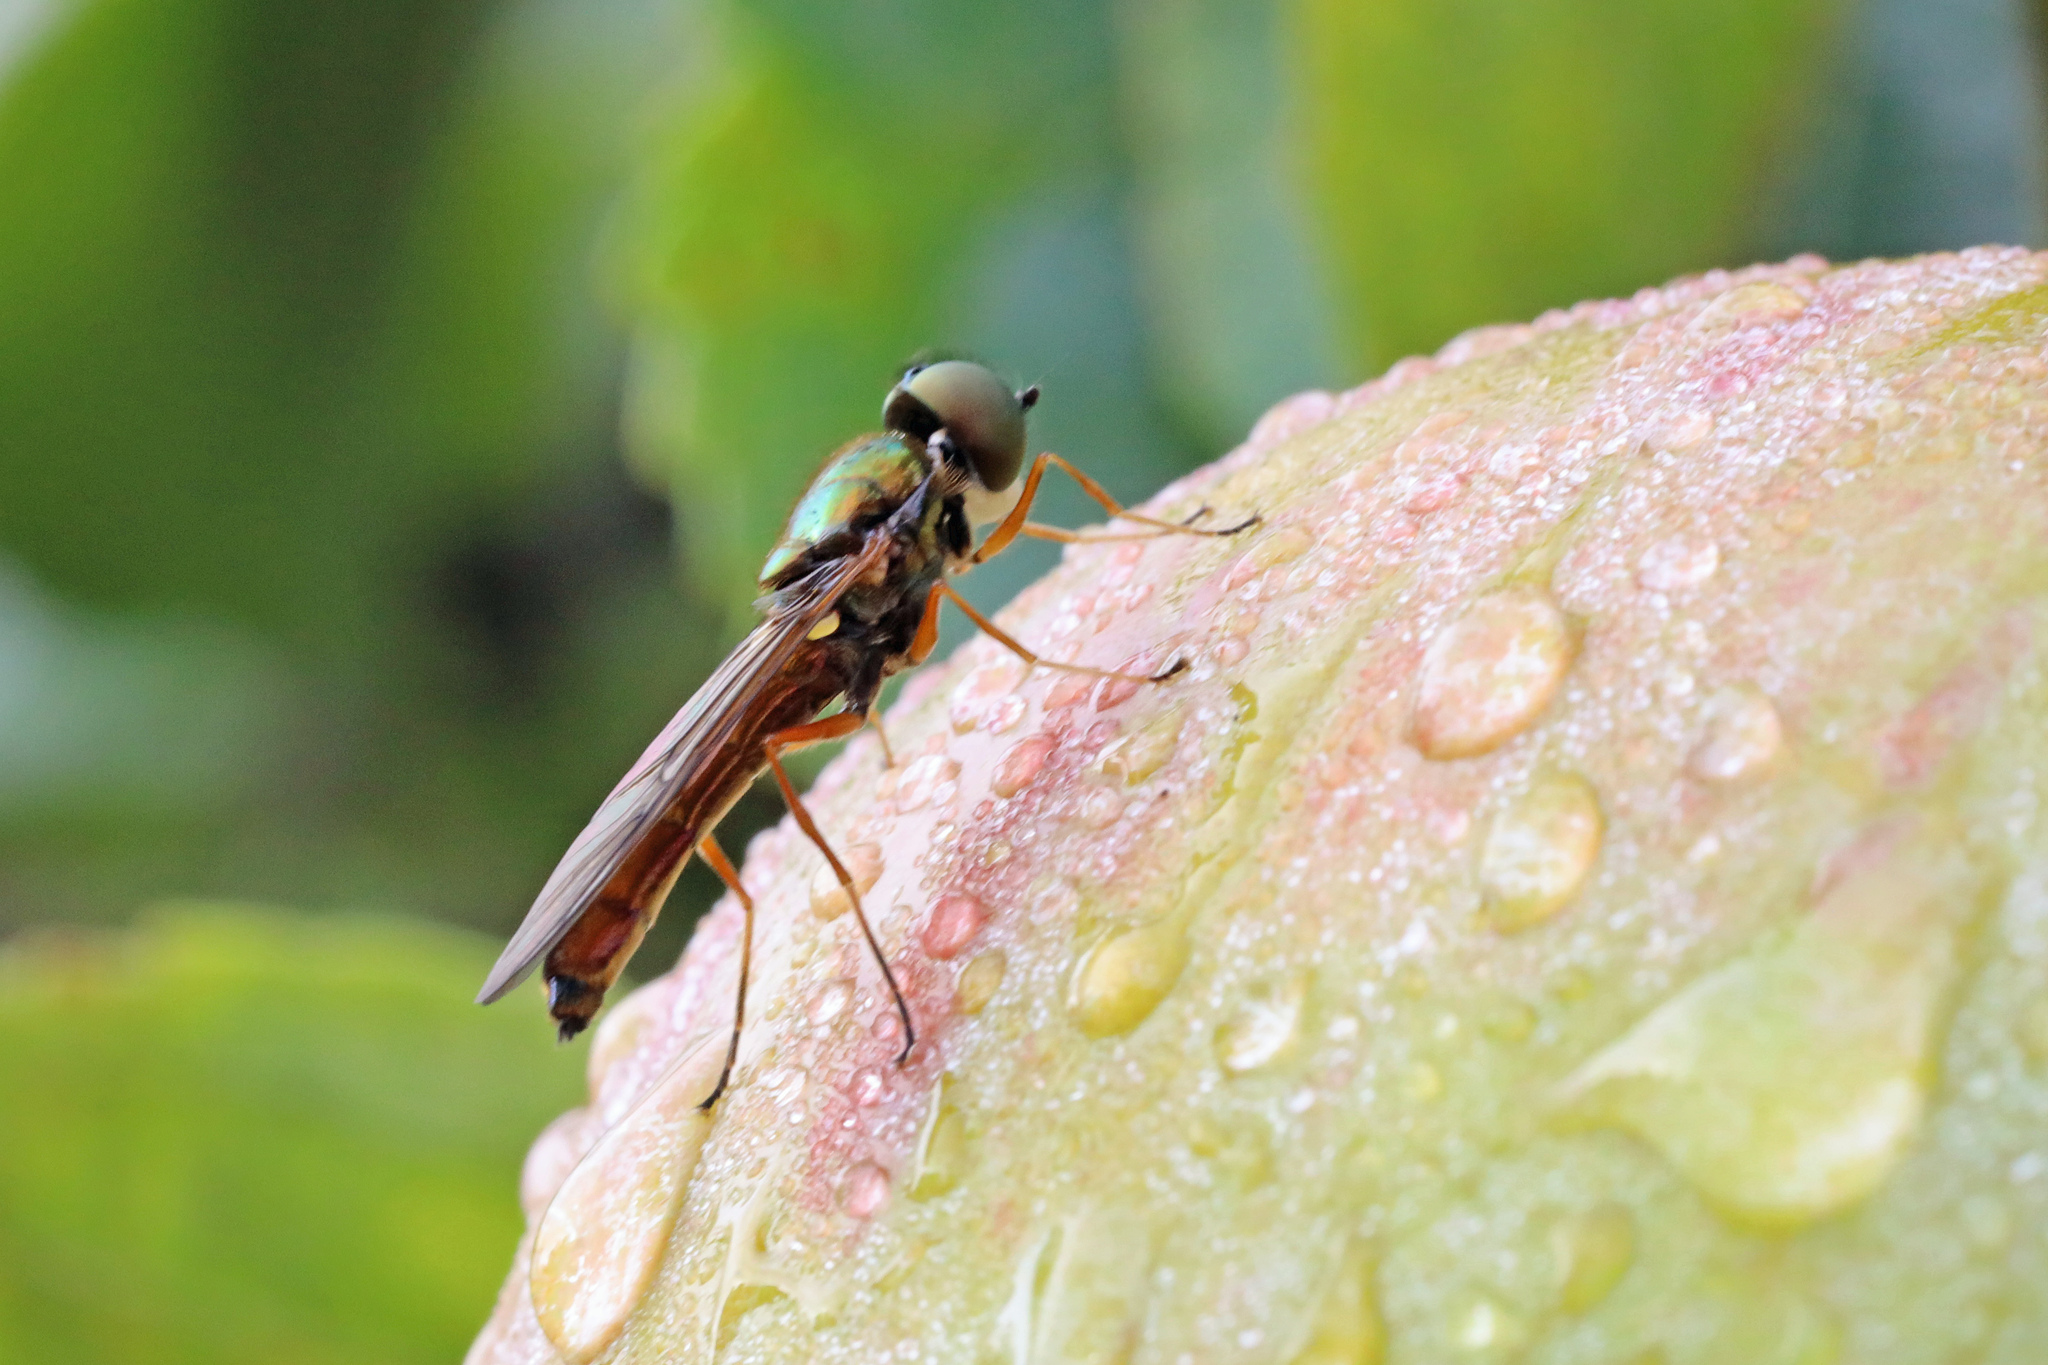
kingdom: Animalia
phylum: Arthropoda
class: Insecta
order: Diptera
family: Stratiomyidae
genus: Sargus
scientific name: Sargus bipunctatus
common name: Twin-spot centurion
